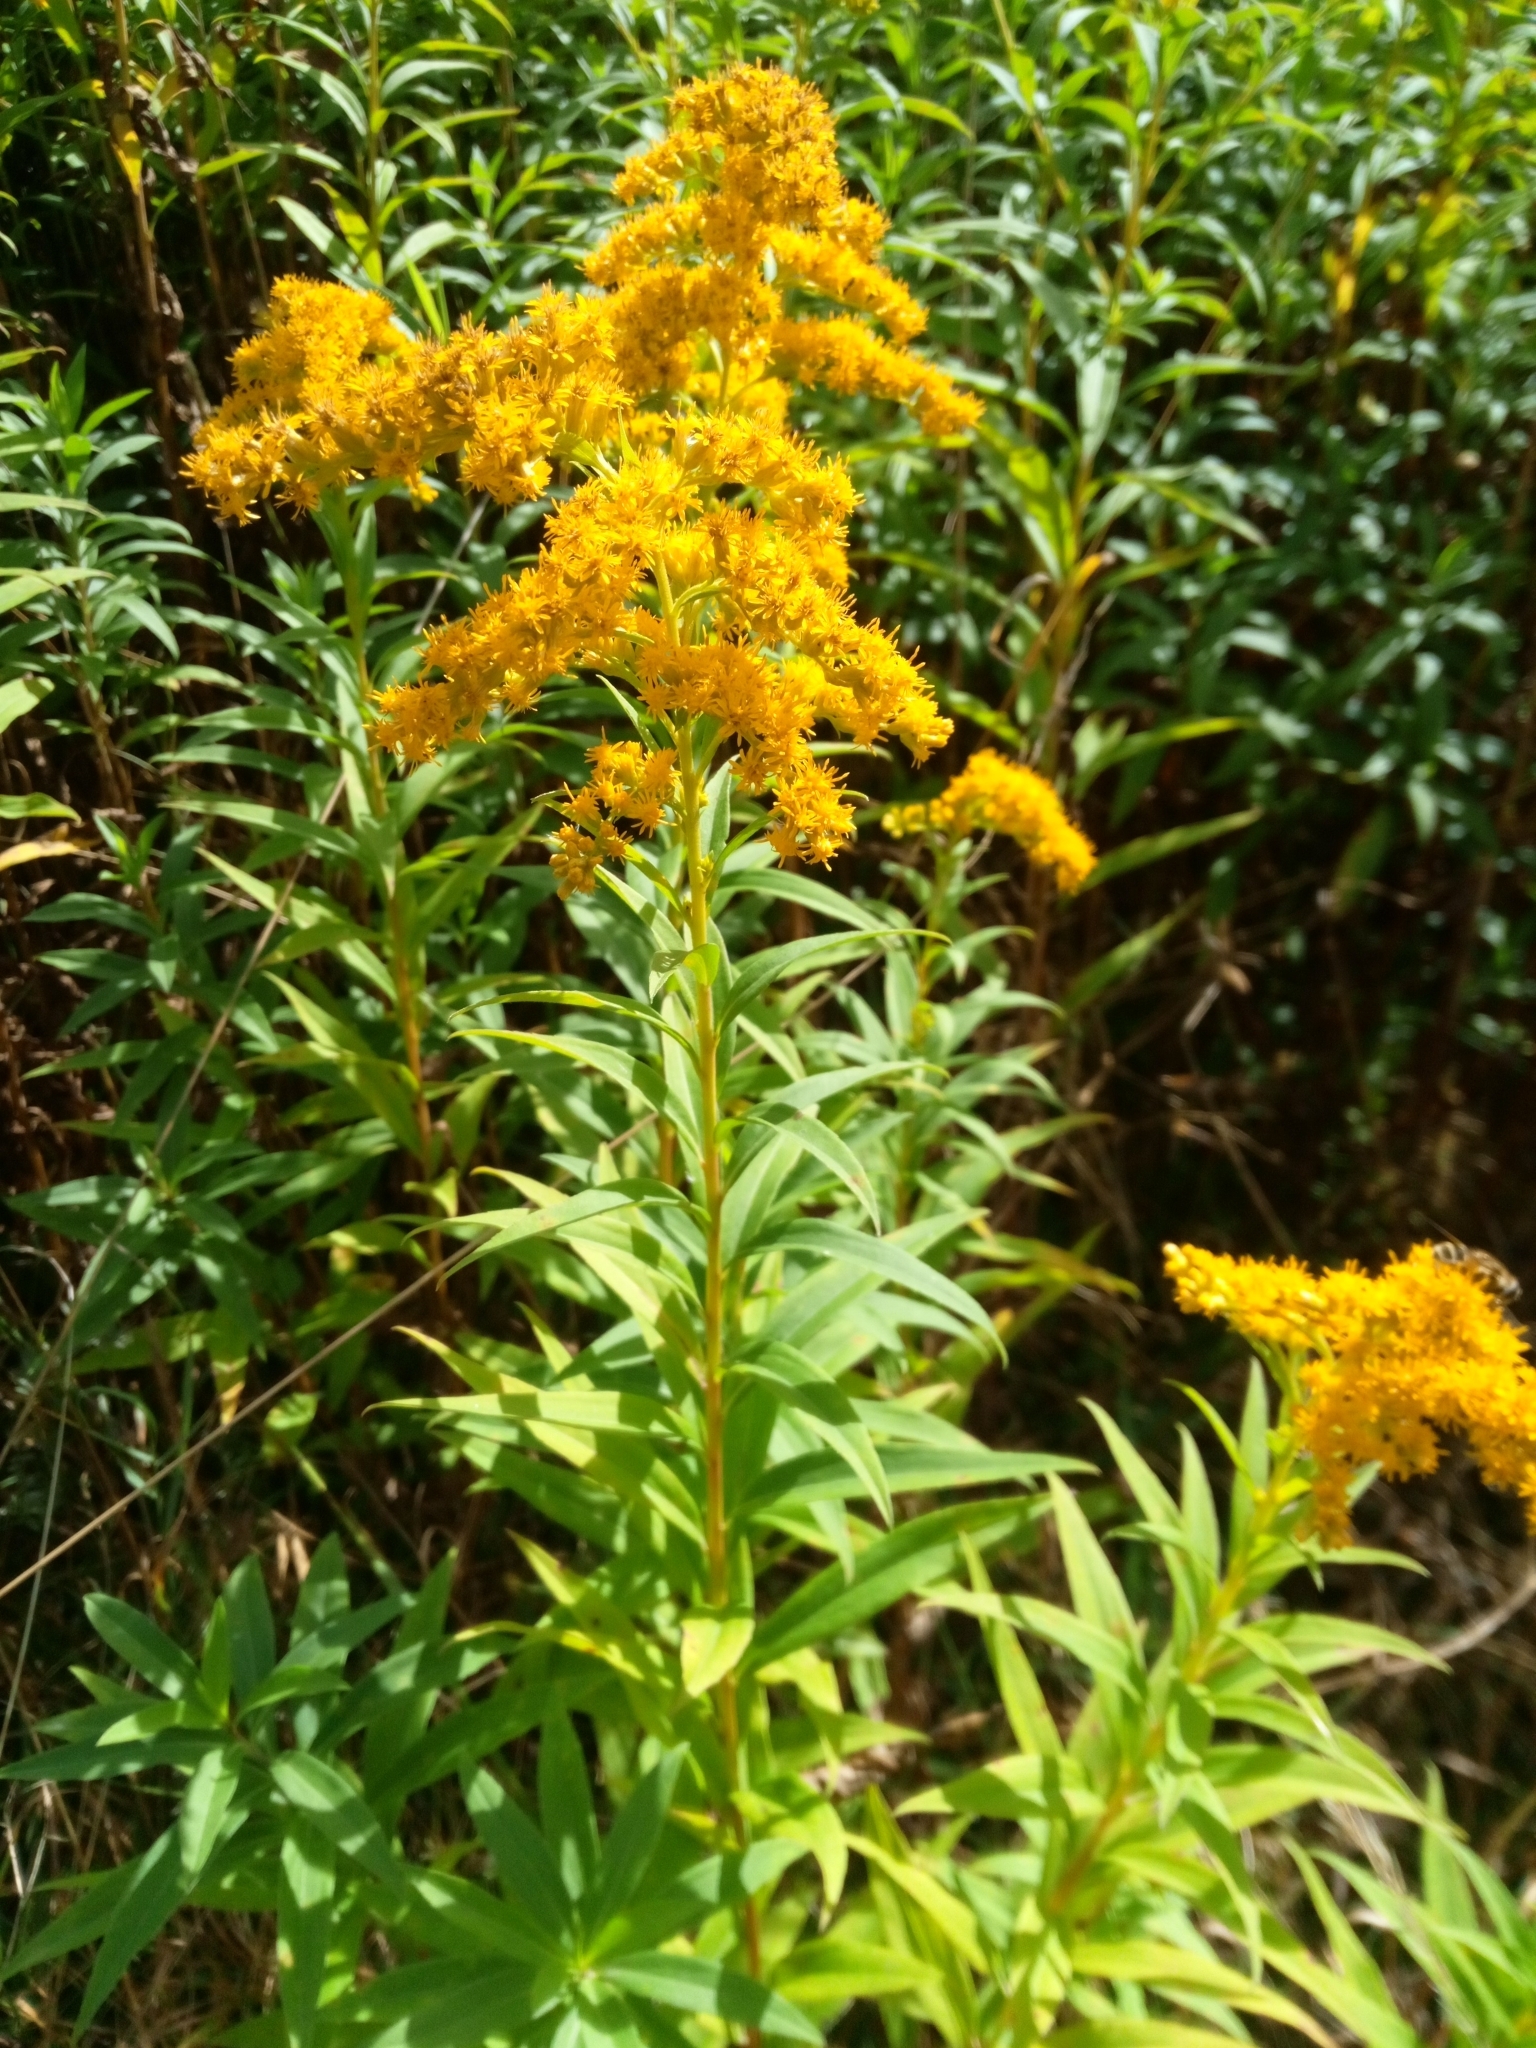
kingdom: Plantae
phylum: Tracheophyta
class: Magnoliopsida
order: Asterales
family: Asteraceae
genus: Solidago
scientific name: Solidago gigantea
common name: Giant goldenrod
